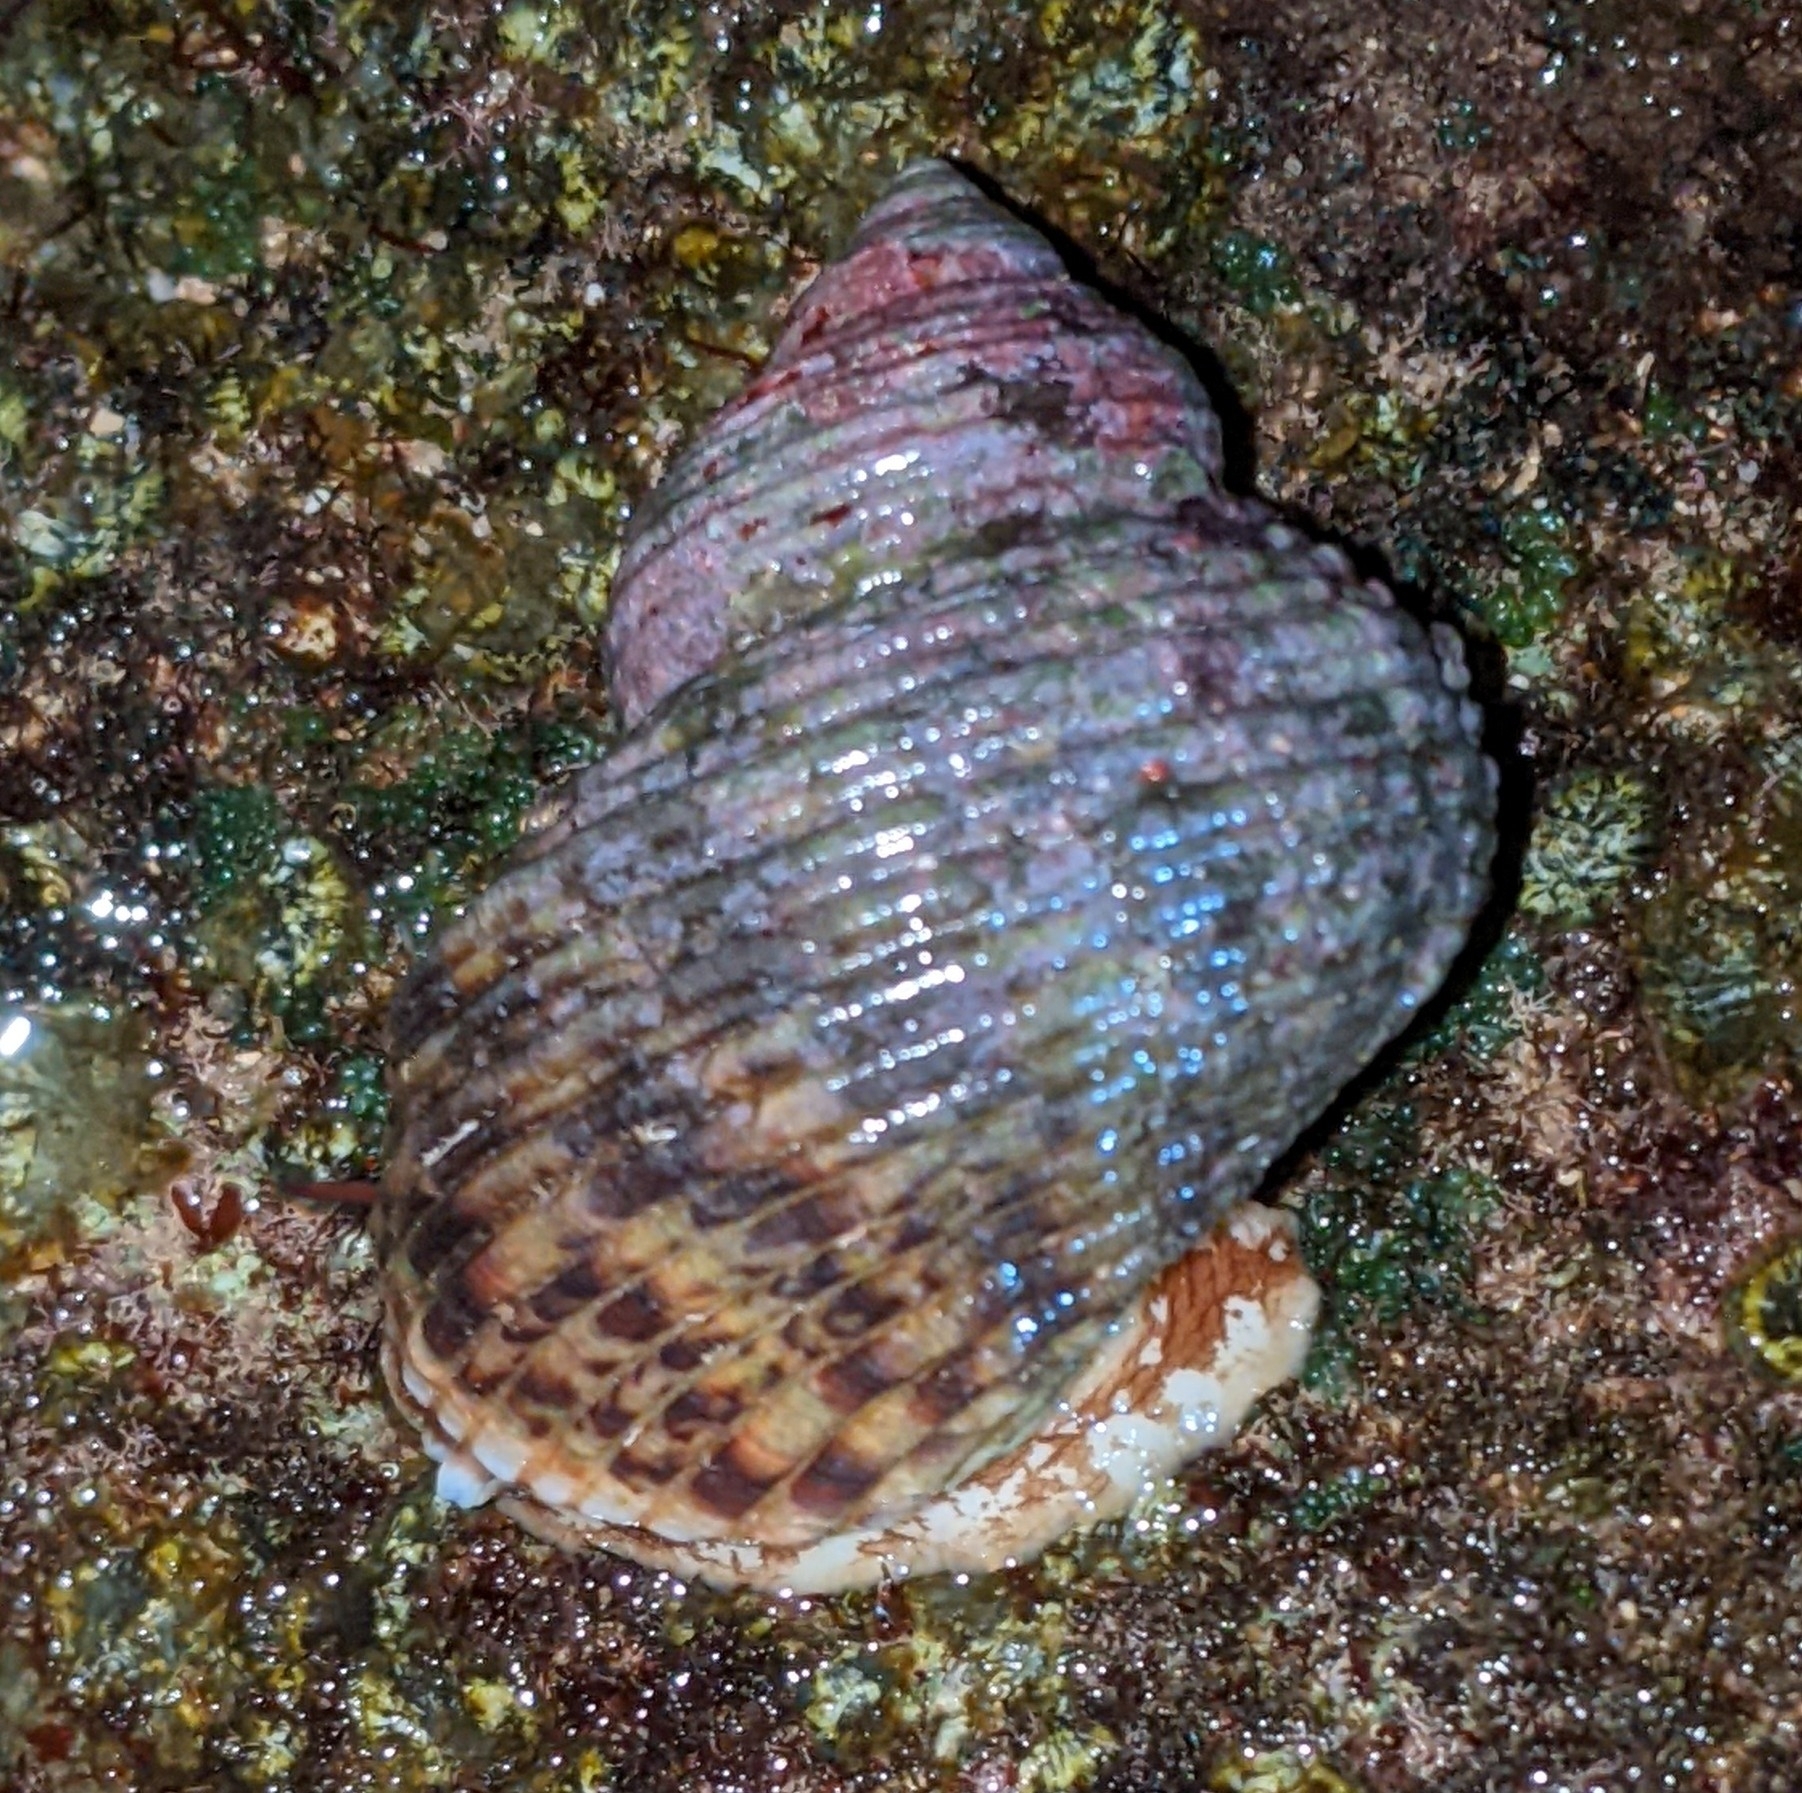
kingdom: Animalia
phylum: Mollusca
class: Gastropoda
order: Trochida
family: Turbinidae
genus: Turbo
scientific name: Turbo sandwicensis
